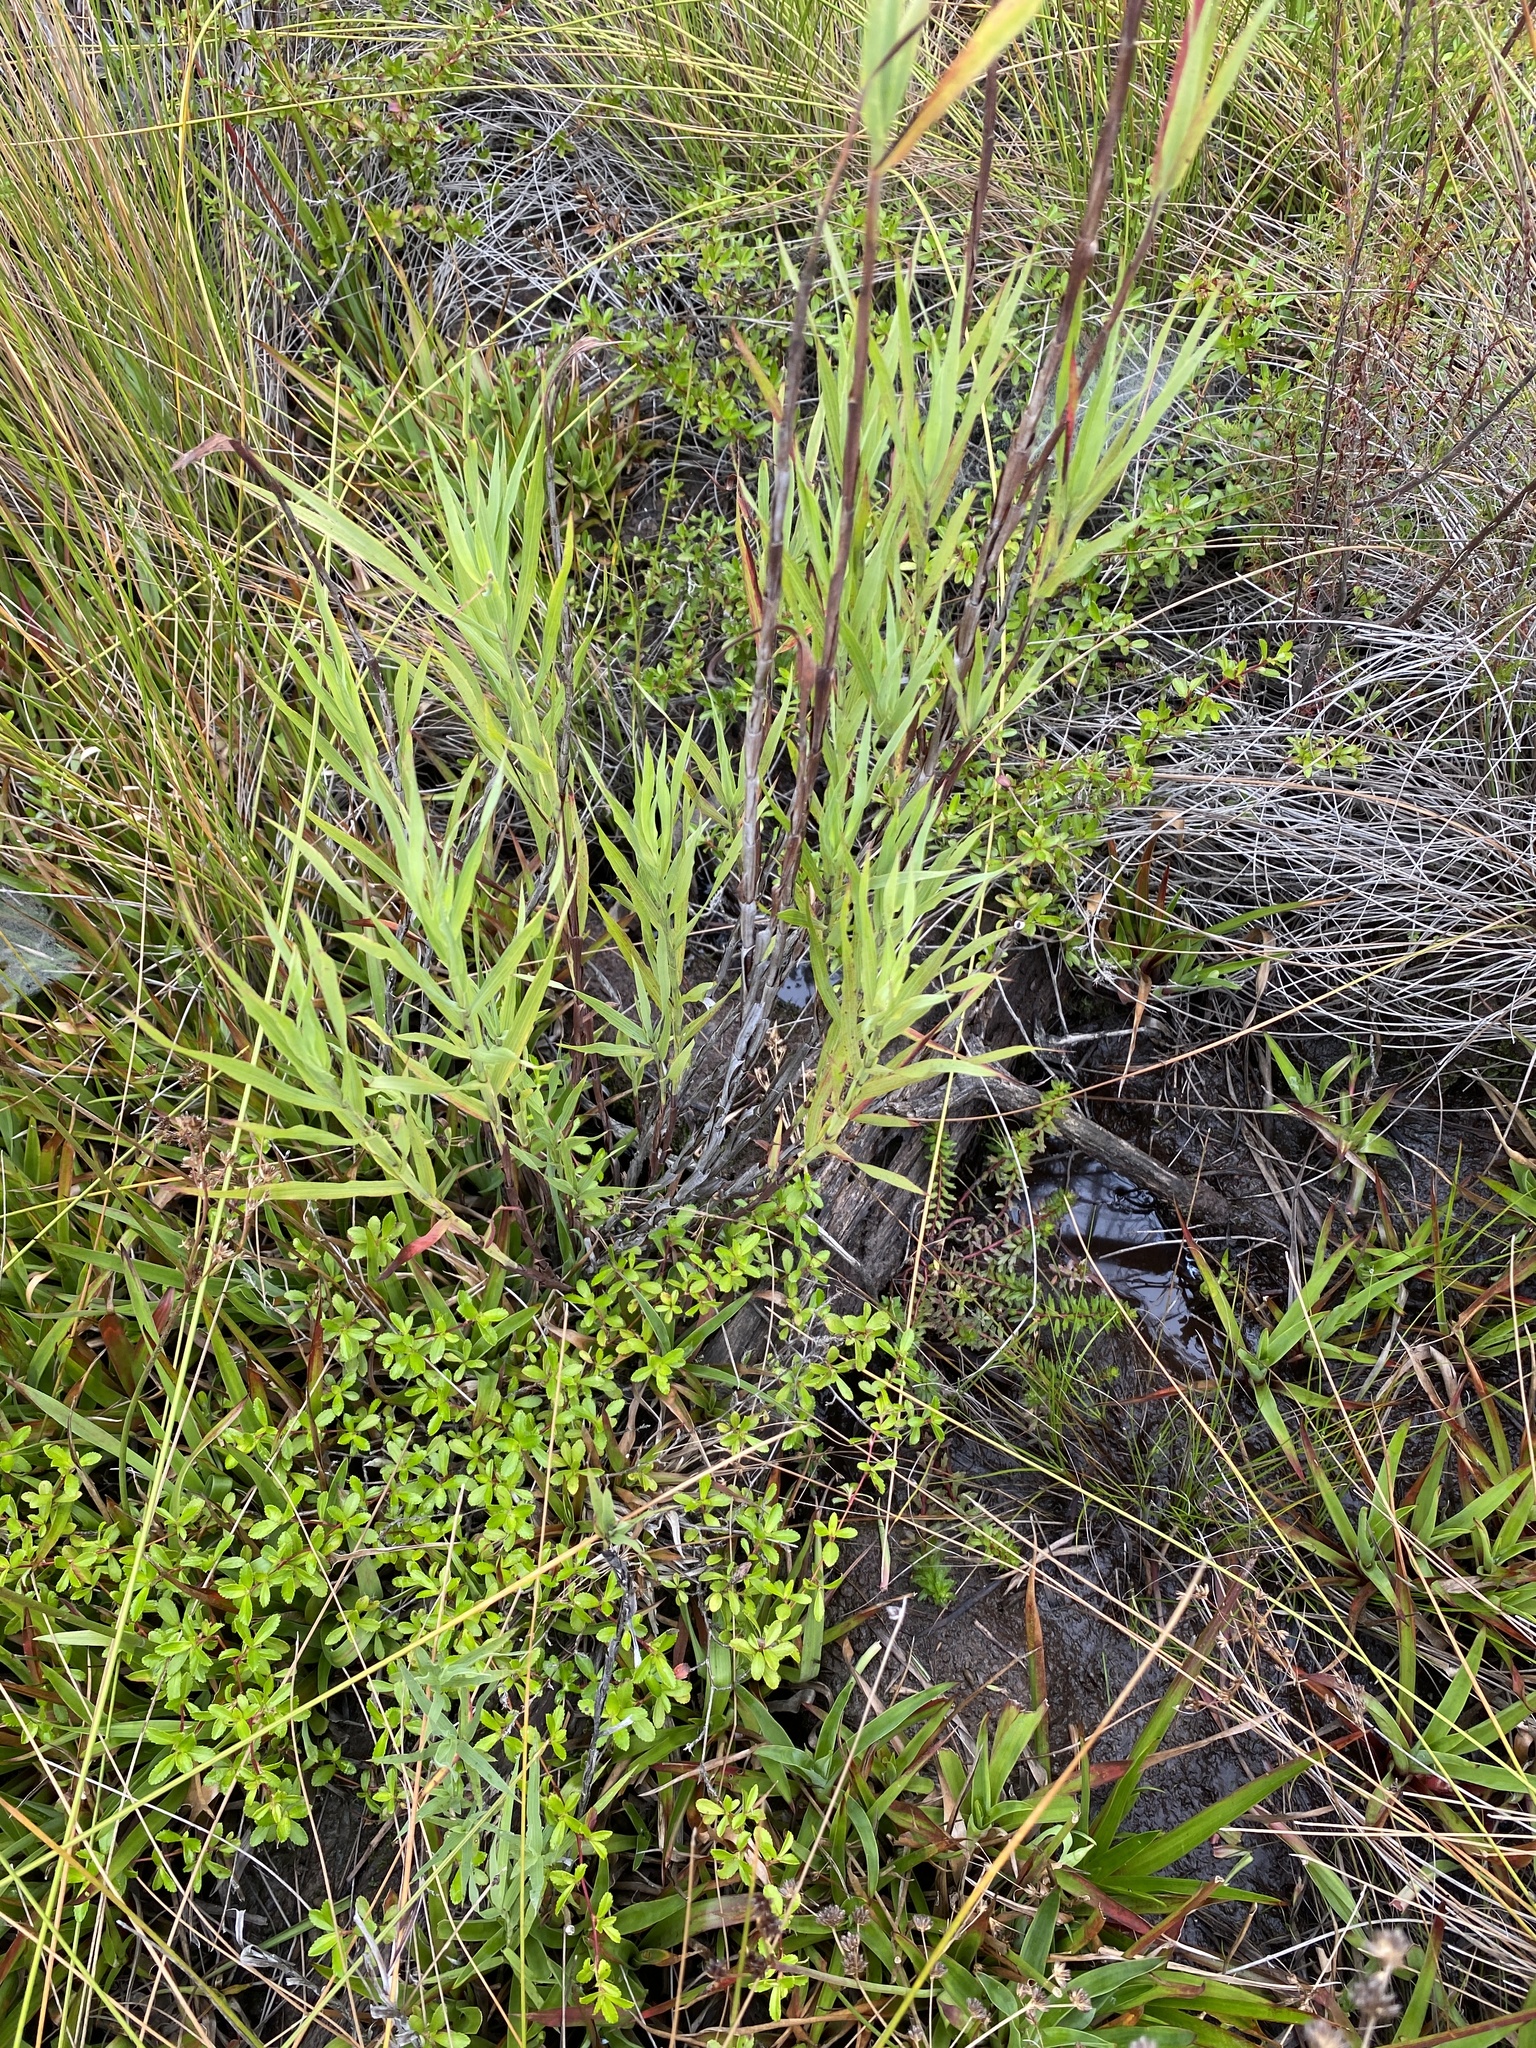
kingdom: Plantae
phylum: Tracheophyta
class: Magnoliopsida
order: Rosales
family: Rosaceae
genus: Cliffortia
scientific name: Cliffortia graminea
